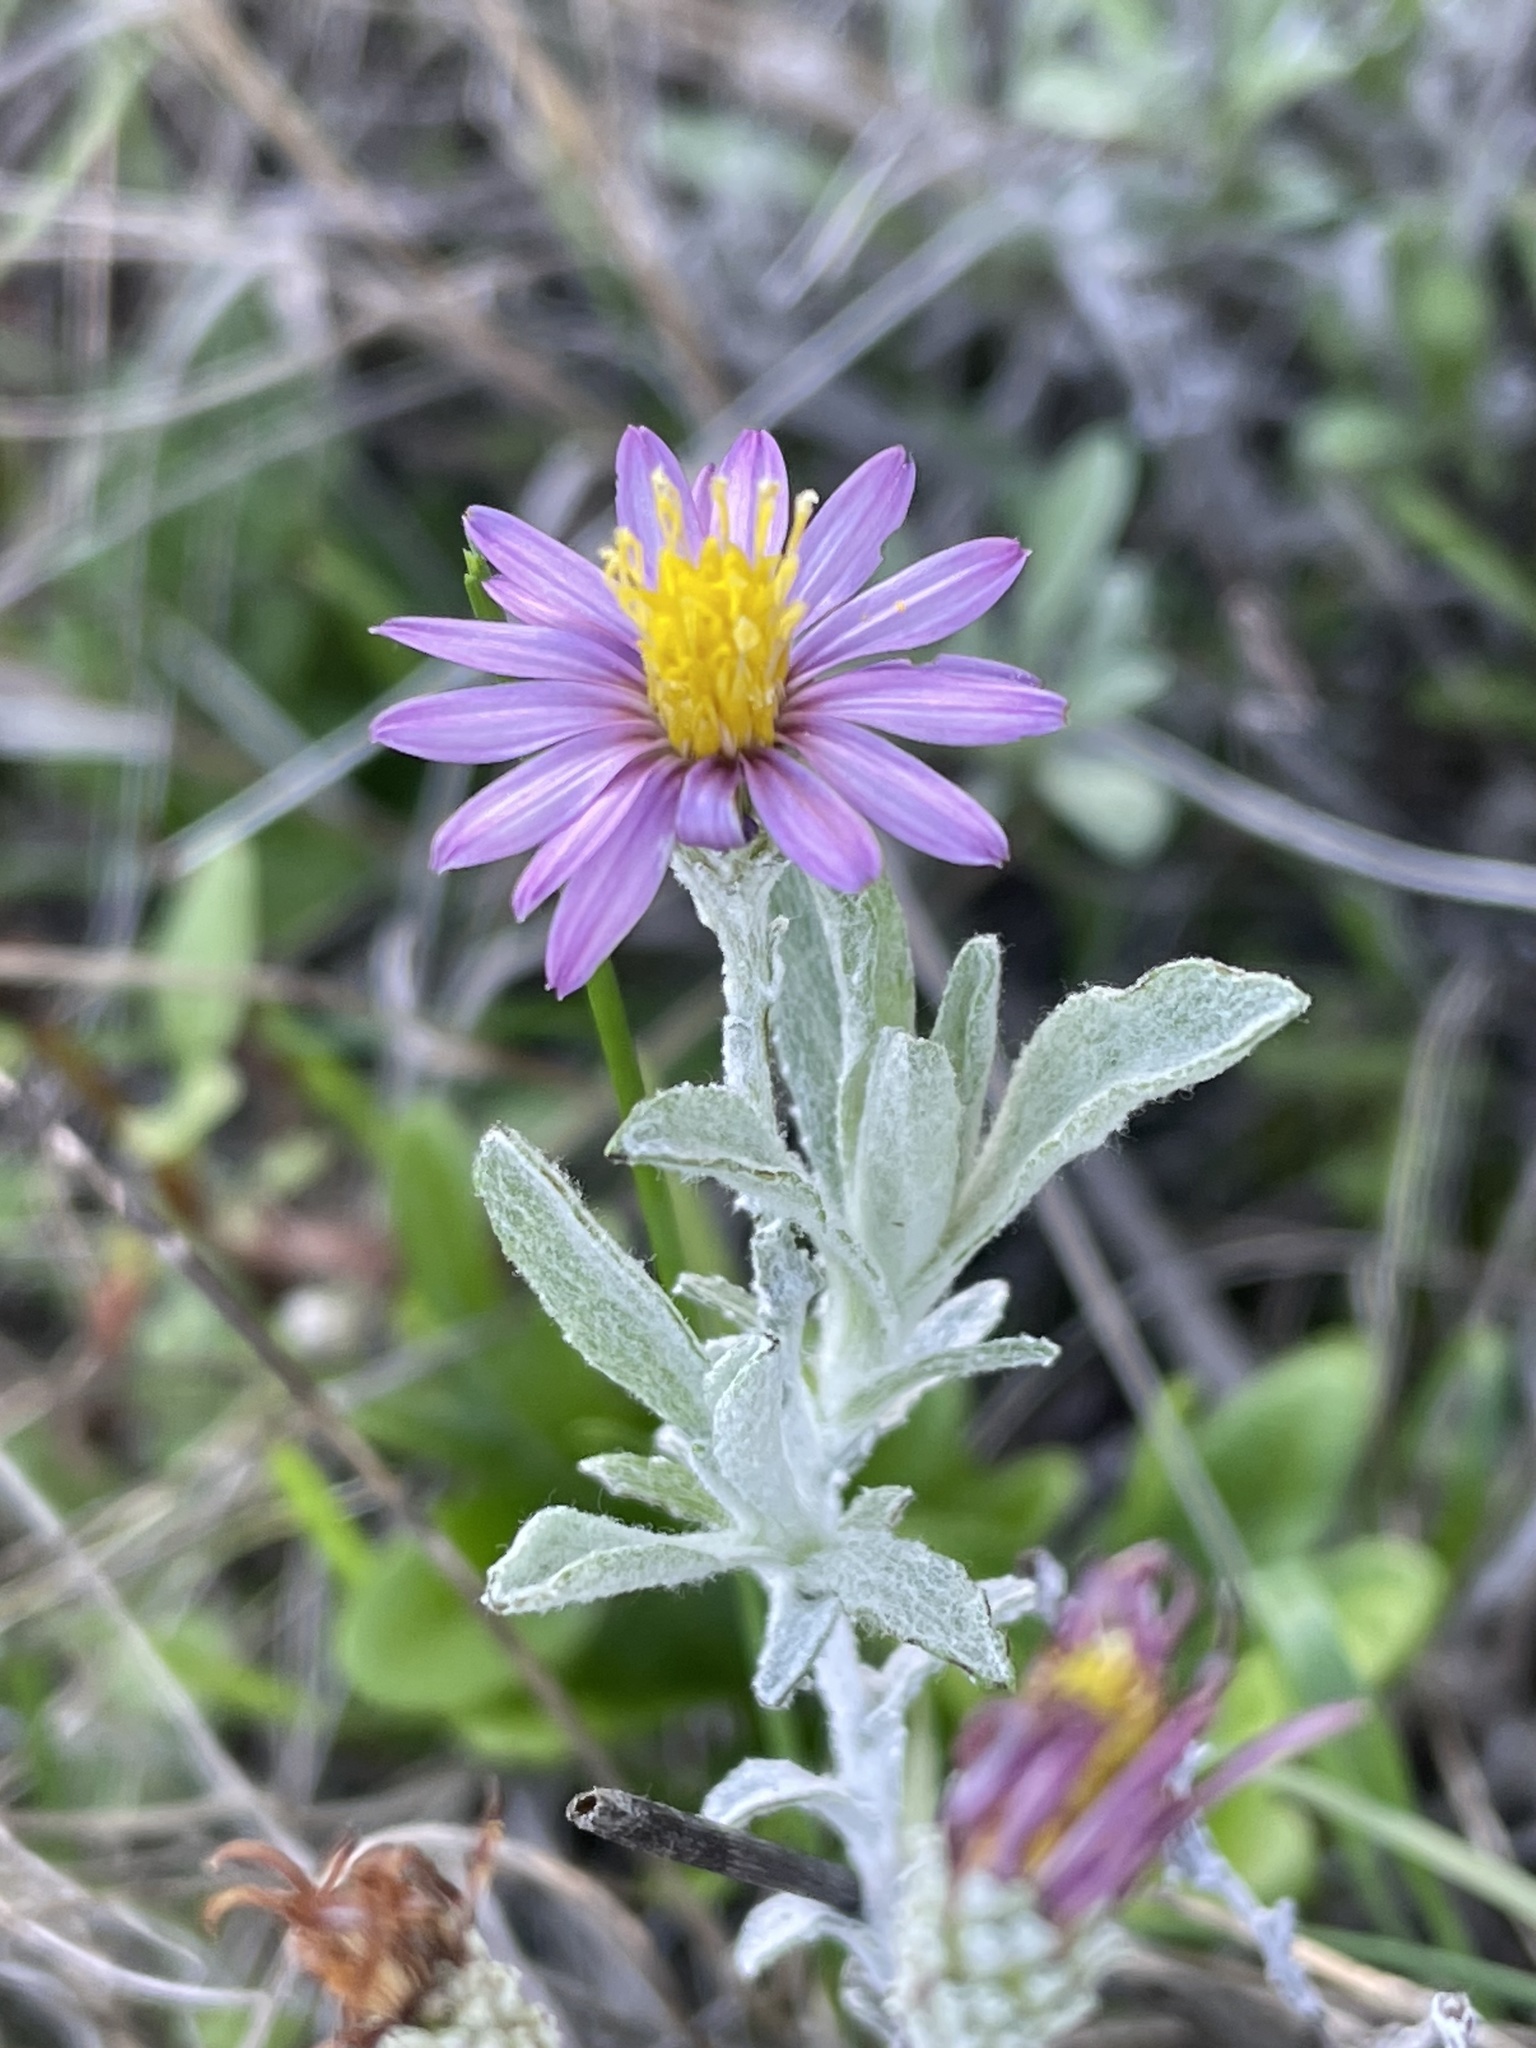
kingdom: Plantae
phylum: Tracheophyta
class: Magnoliopsida
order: Asterales
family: Asteraceae
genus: Corethrogyne
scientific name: Corethrogyne filaginifolia
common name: Sand-aster
